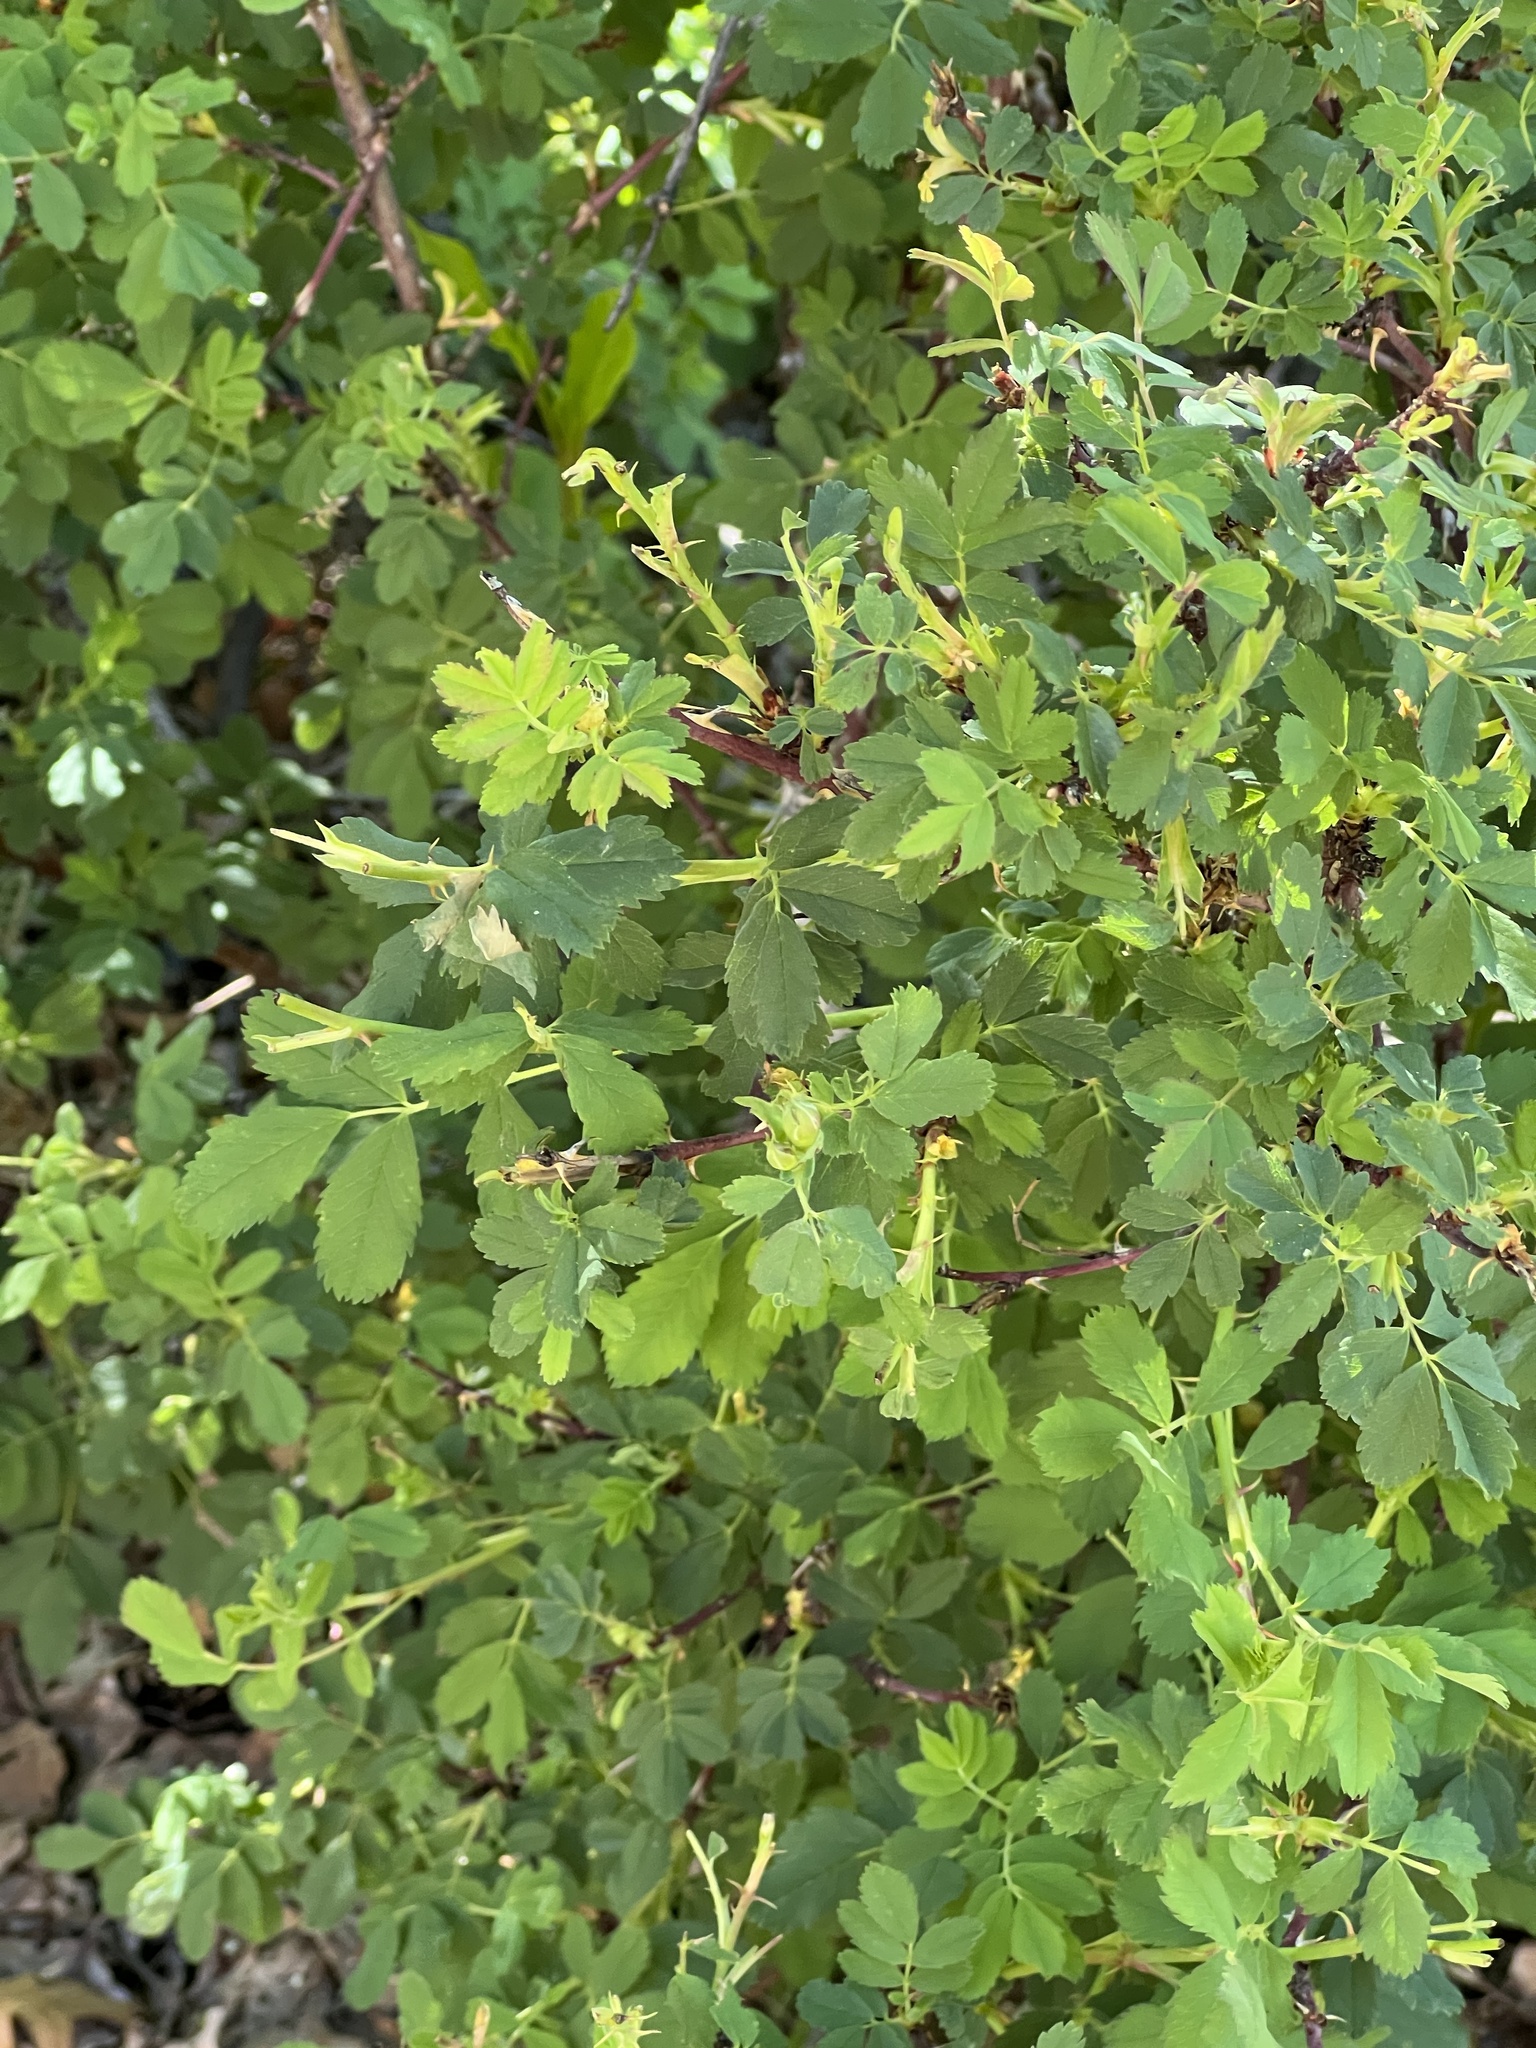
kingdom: Plantae
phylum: Tracheophyta
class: Magnoliopsida
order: Rosales
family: Rosaceae
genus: Rosa
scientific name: Rosa woodsii
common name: Woods's rose
